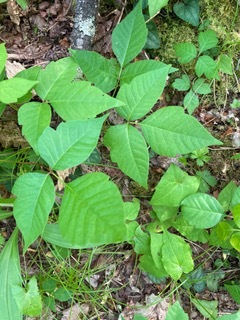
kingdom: Plantae
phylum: Tracheophyta
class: Magnoliopsida
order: Sapindales
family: Anacardiaceae
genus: Toxicodendron
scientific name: Toxicodendron radicans
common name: Poison ivy
